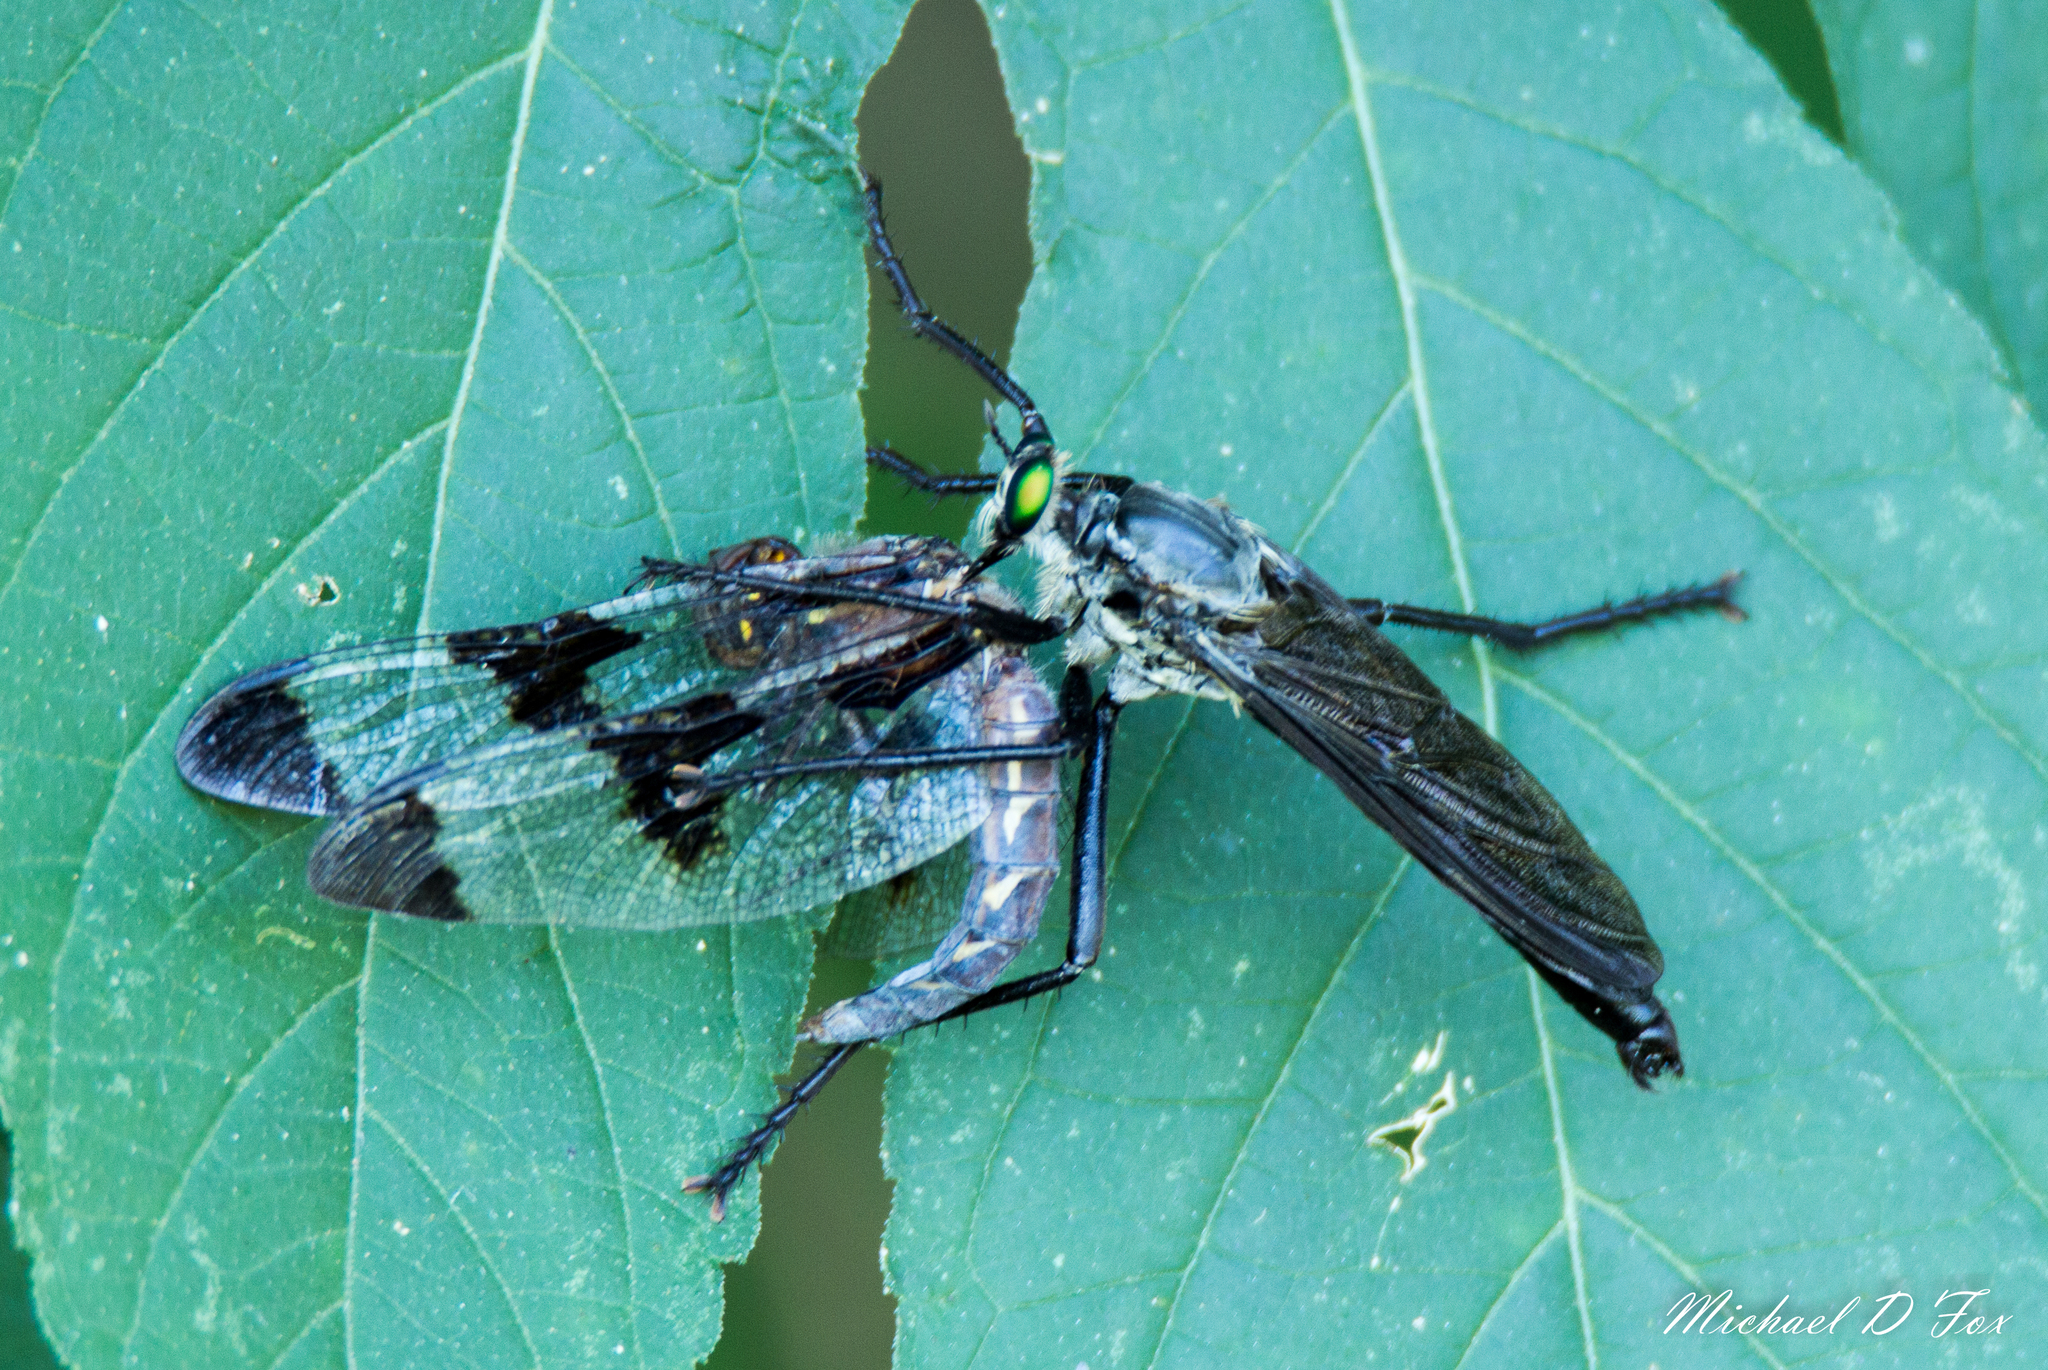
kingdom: Animalia
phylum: Arthropoda
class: Insecta
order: Diptera
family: Asilidae
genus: Microstylum
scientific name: Microstylum morosum
